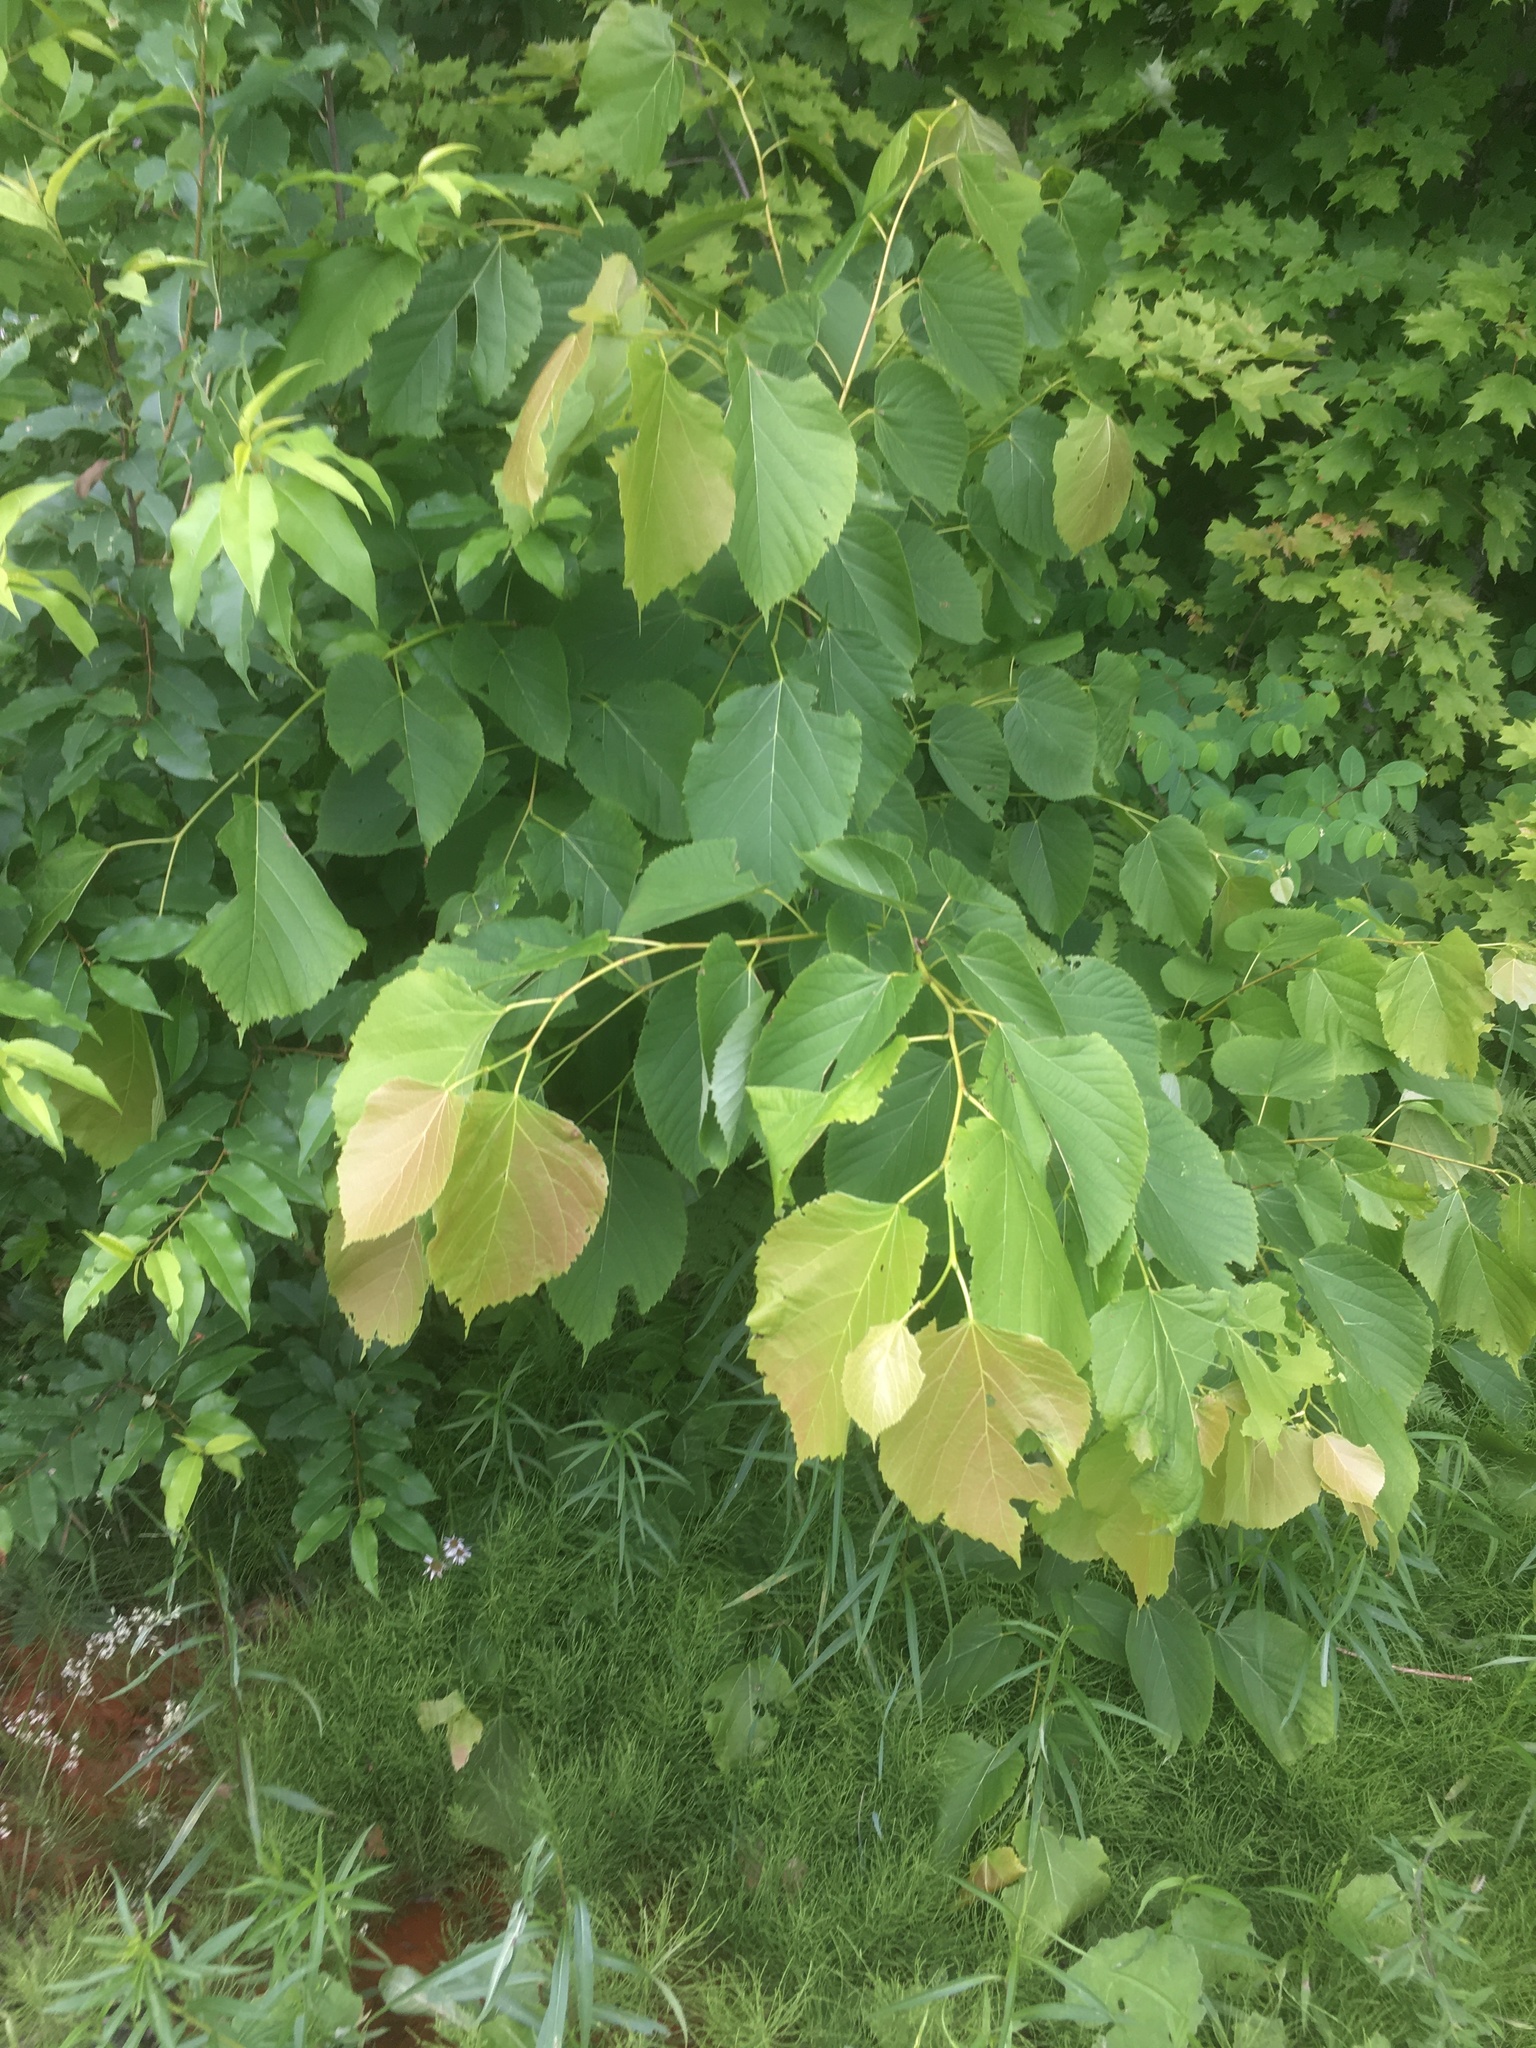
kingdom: Plantae
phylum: Tracheophyta
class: Magnoliopsida
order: Malvales
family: Malvaceae
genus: Tilia
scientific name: Tilia americana
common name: Basswood
